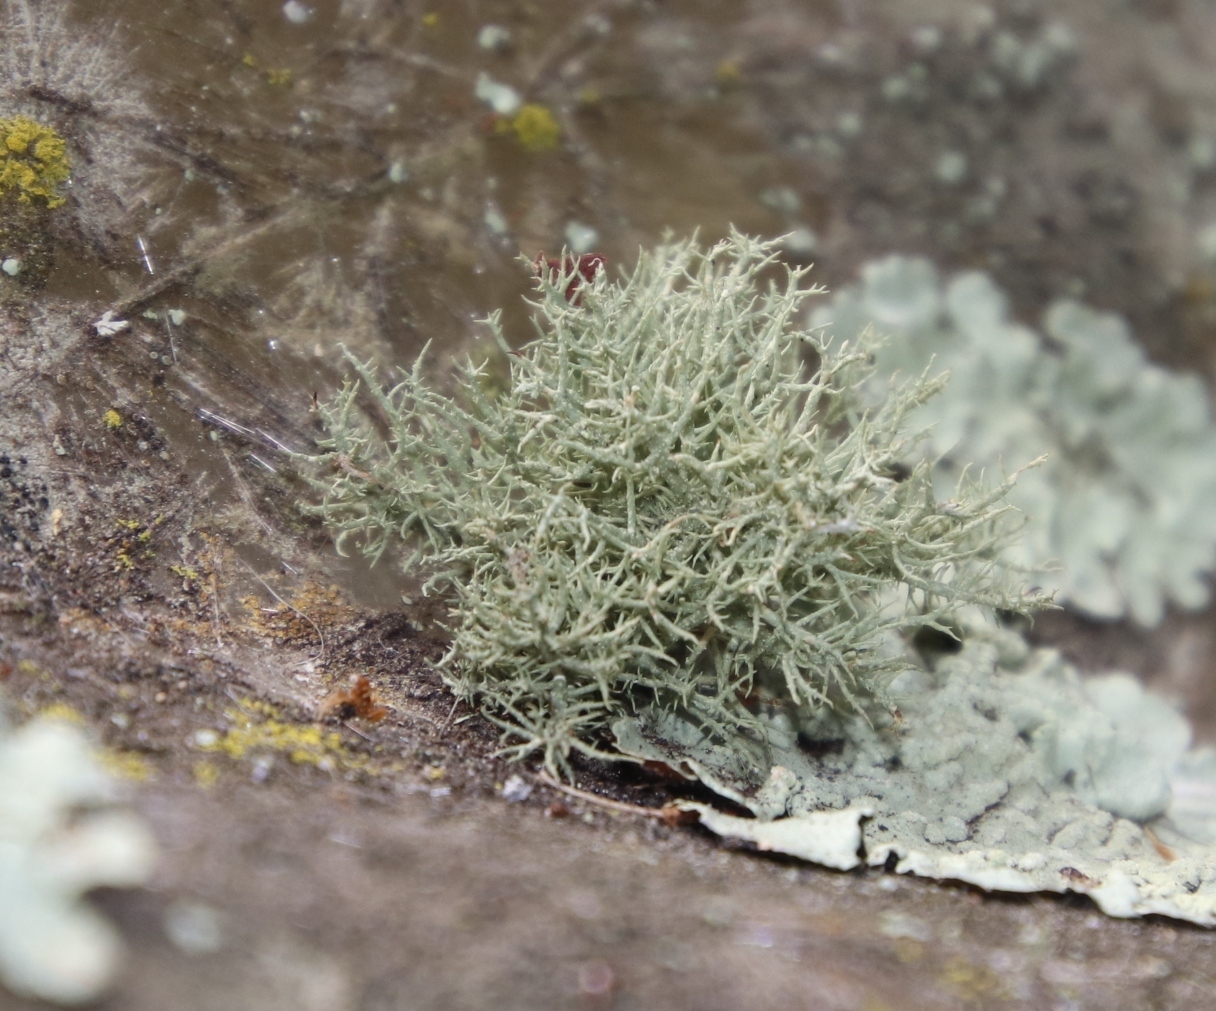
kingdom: Fungi
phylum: Ascomycota
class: Lecanoromycetes
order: Lecanorales
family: Parmeliaceae
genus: Usnea
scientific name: Usnea
